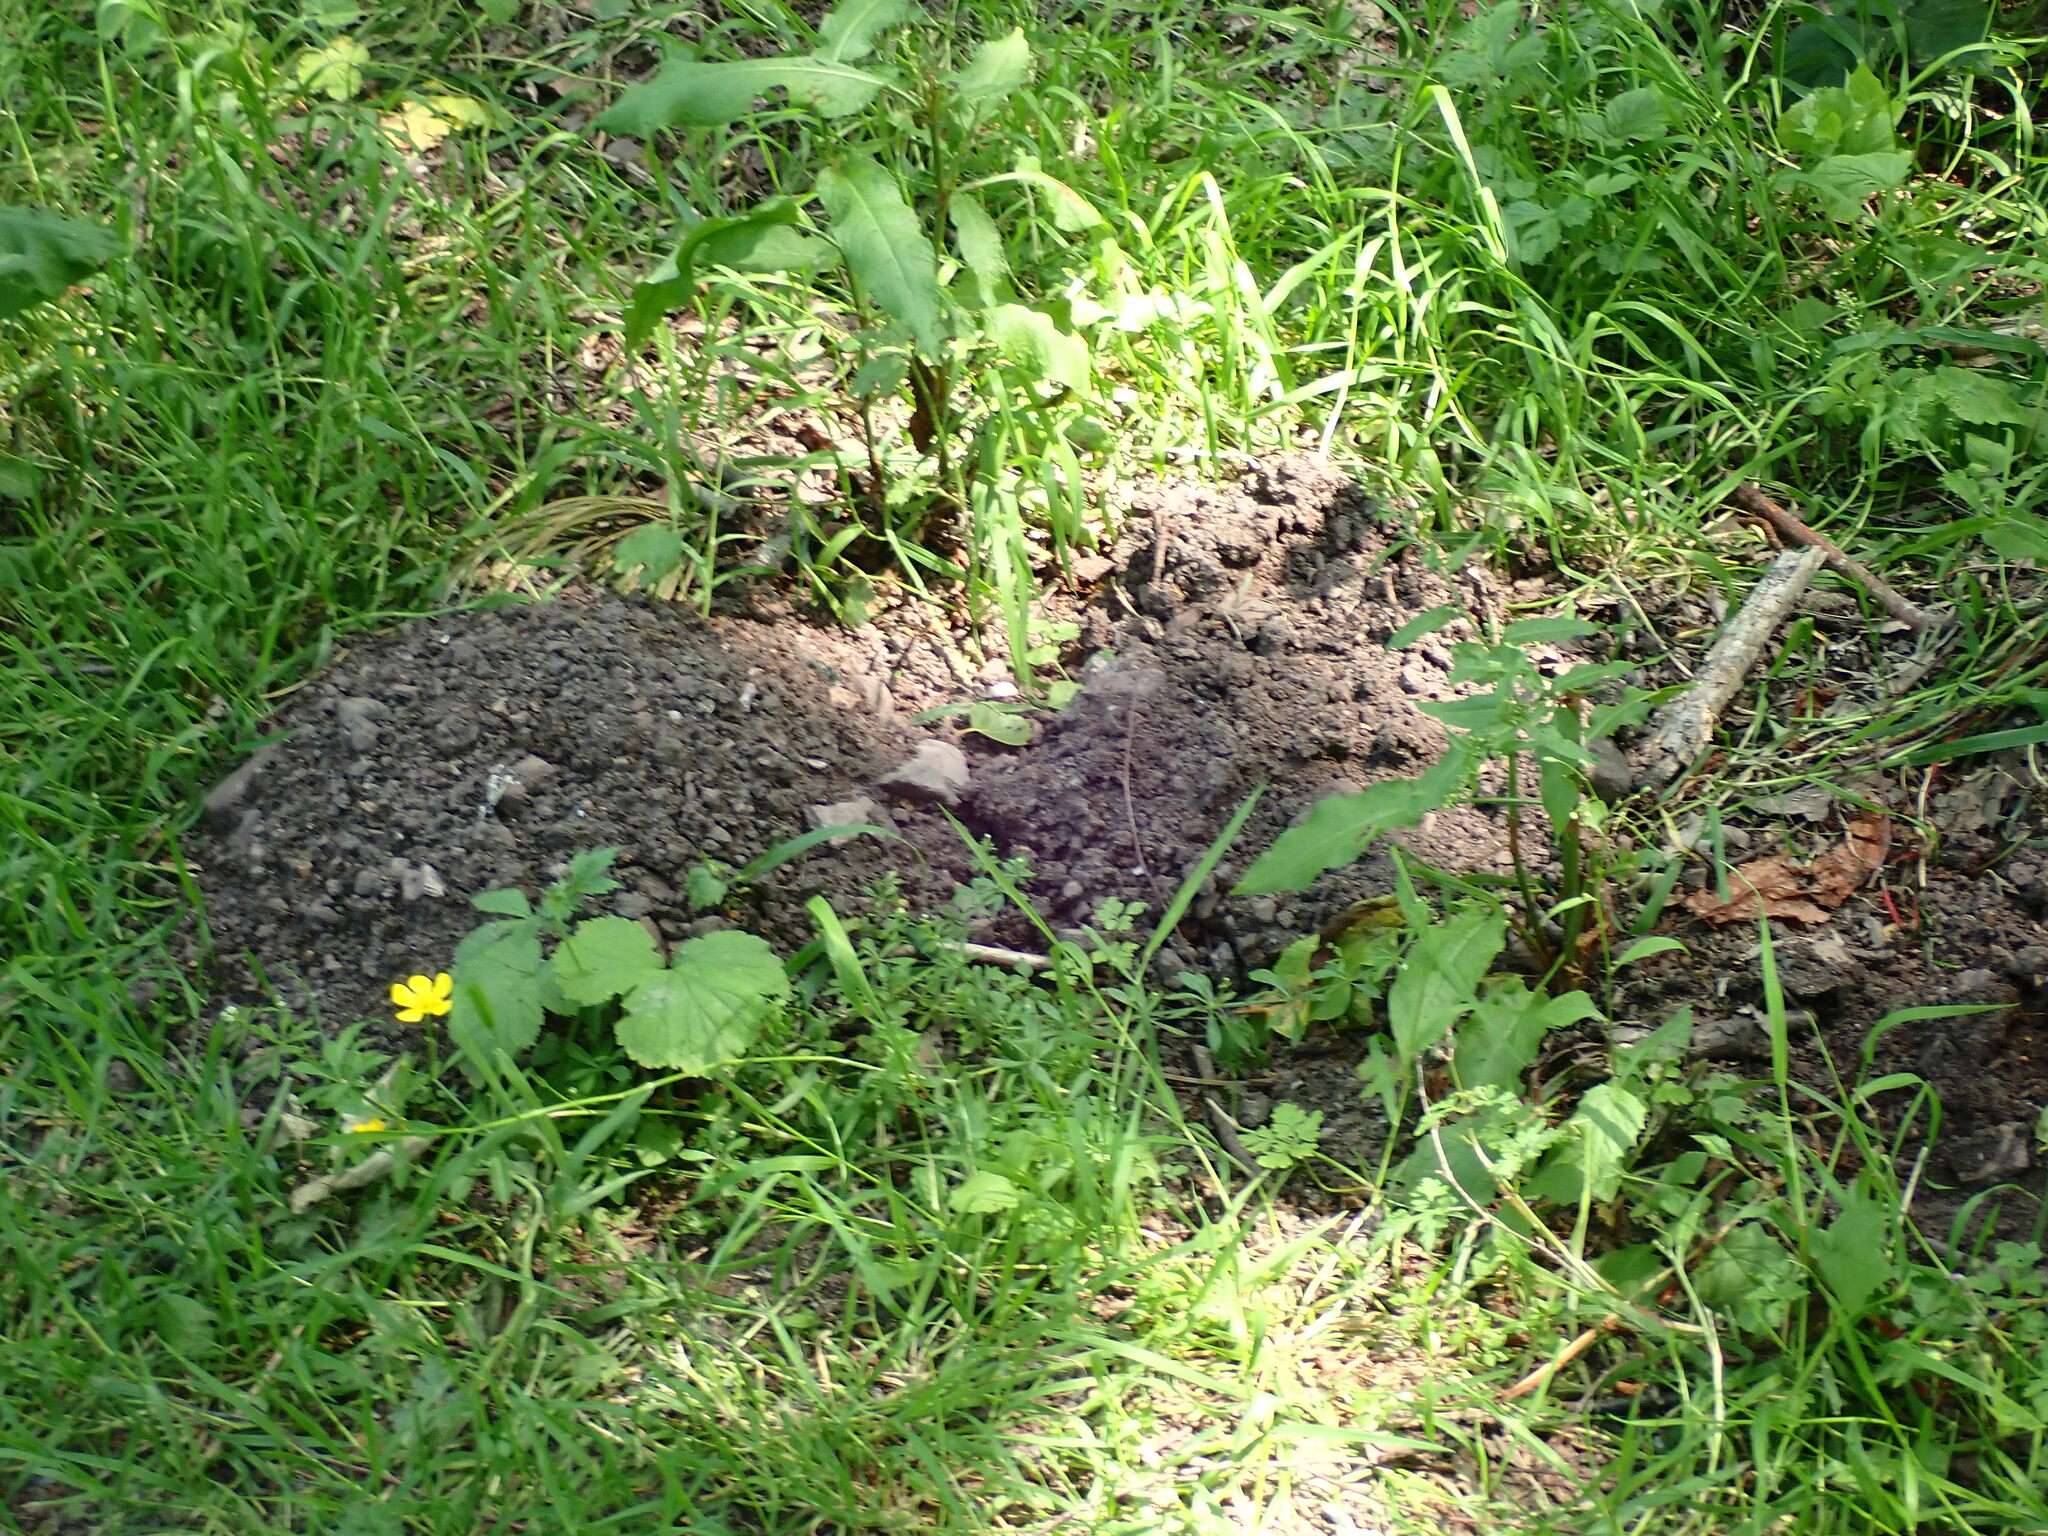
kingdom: Animalia
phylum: Chordata
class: Mammalia
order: Soricomorpha
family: Talpidae
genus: Talpa
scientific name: Talpa europaea
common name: European mole
